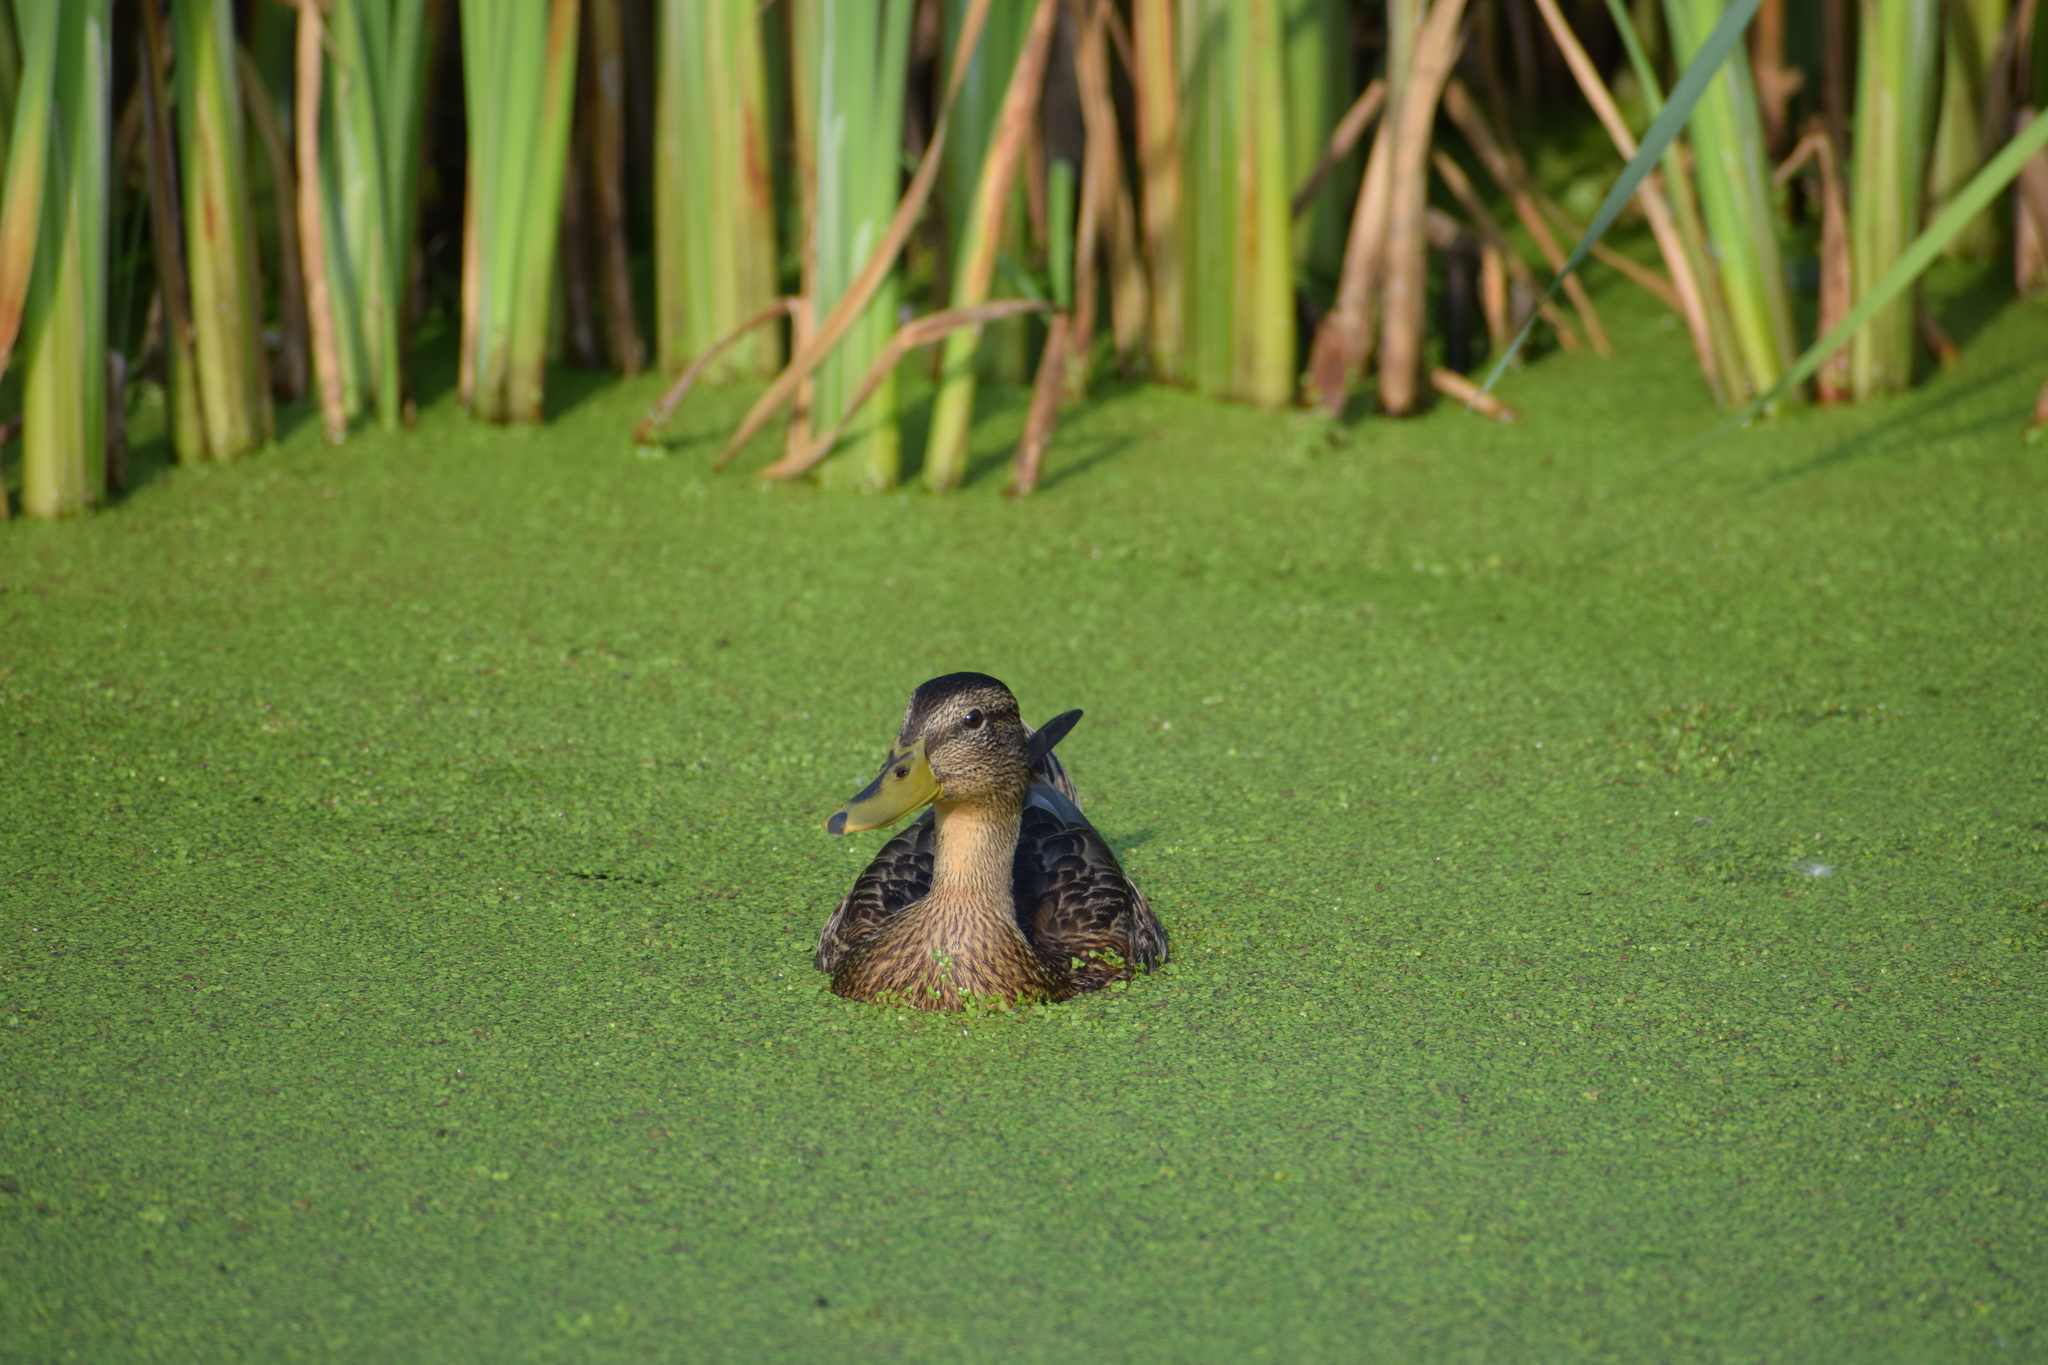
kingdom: Animalia
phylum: Chordata
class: Aves
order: Anseriformes
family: Anatidae
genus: Anas
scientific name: Anas platyrhynchos
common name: Mallard
